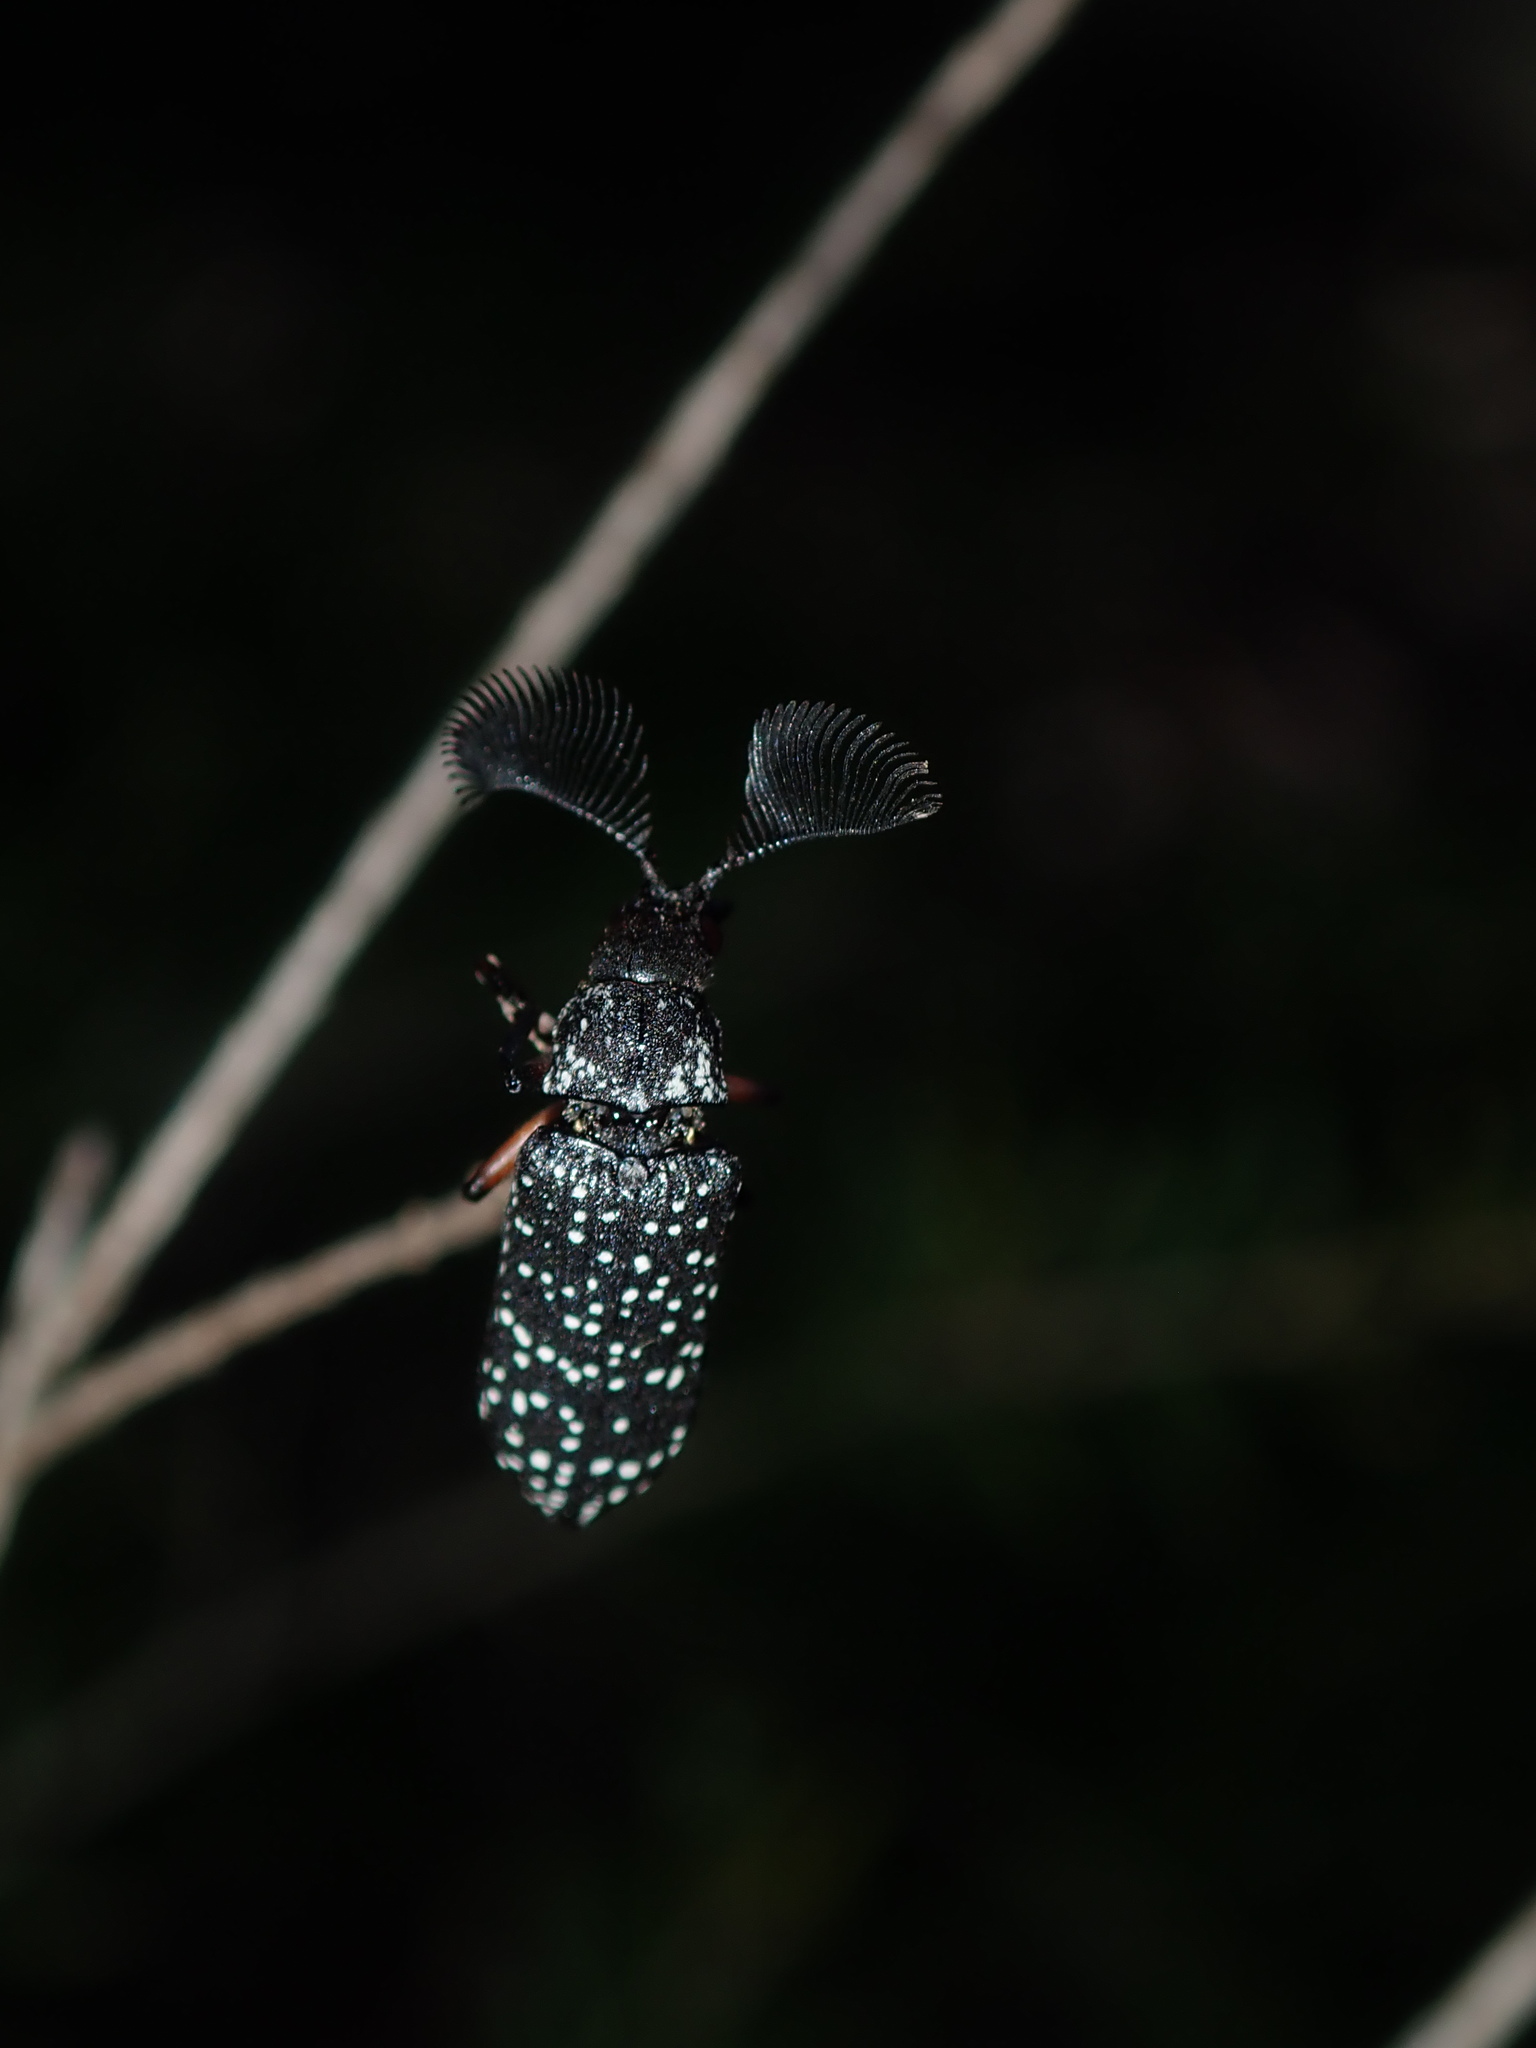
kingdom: Animalia
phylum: Arthropoda
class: Insecta
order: Coleoptera
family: Rhipiceridae
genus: Rhipicera
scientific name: Rhipicera femorata
